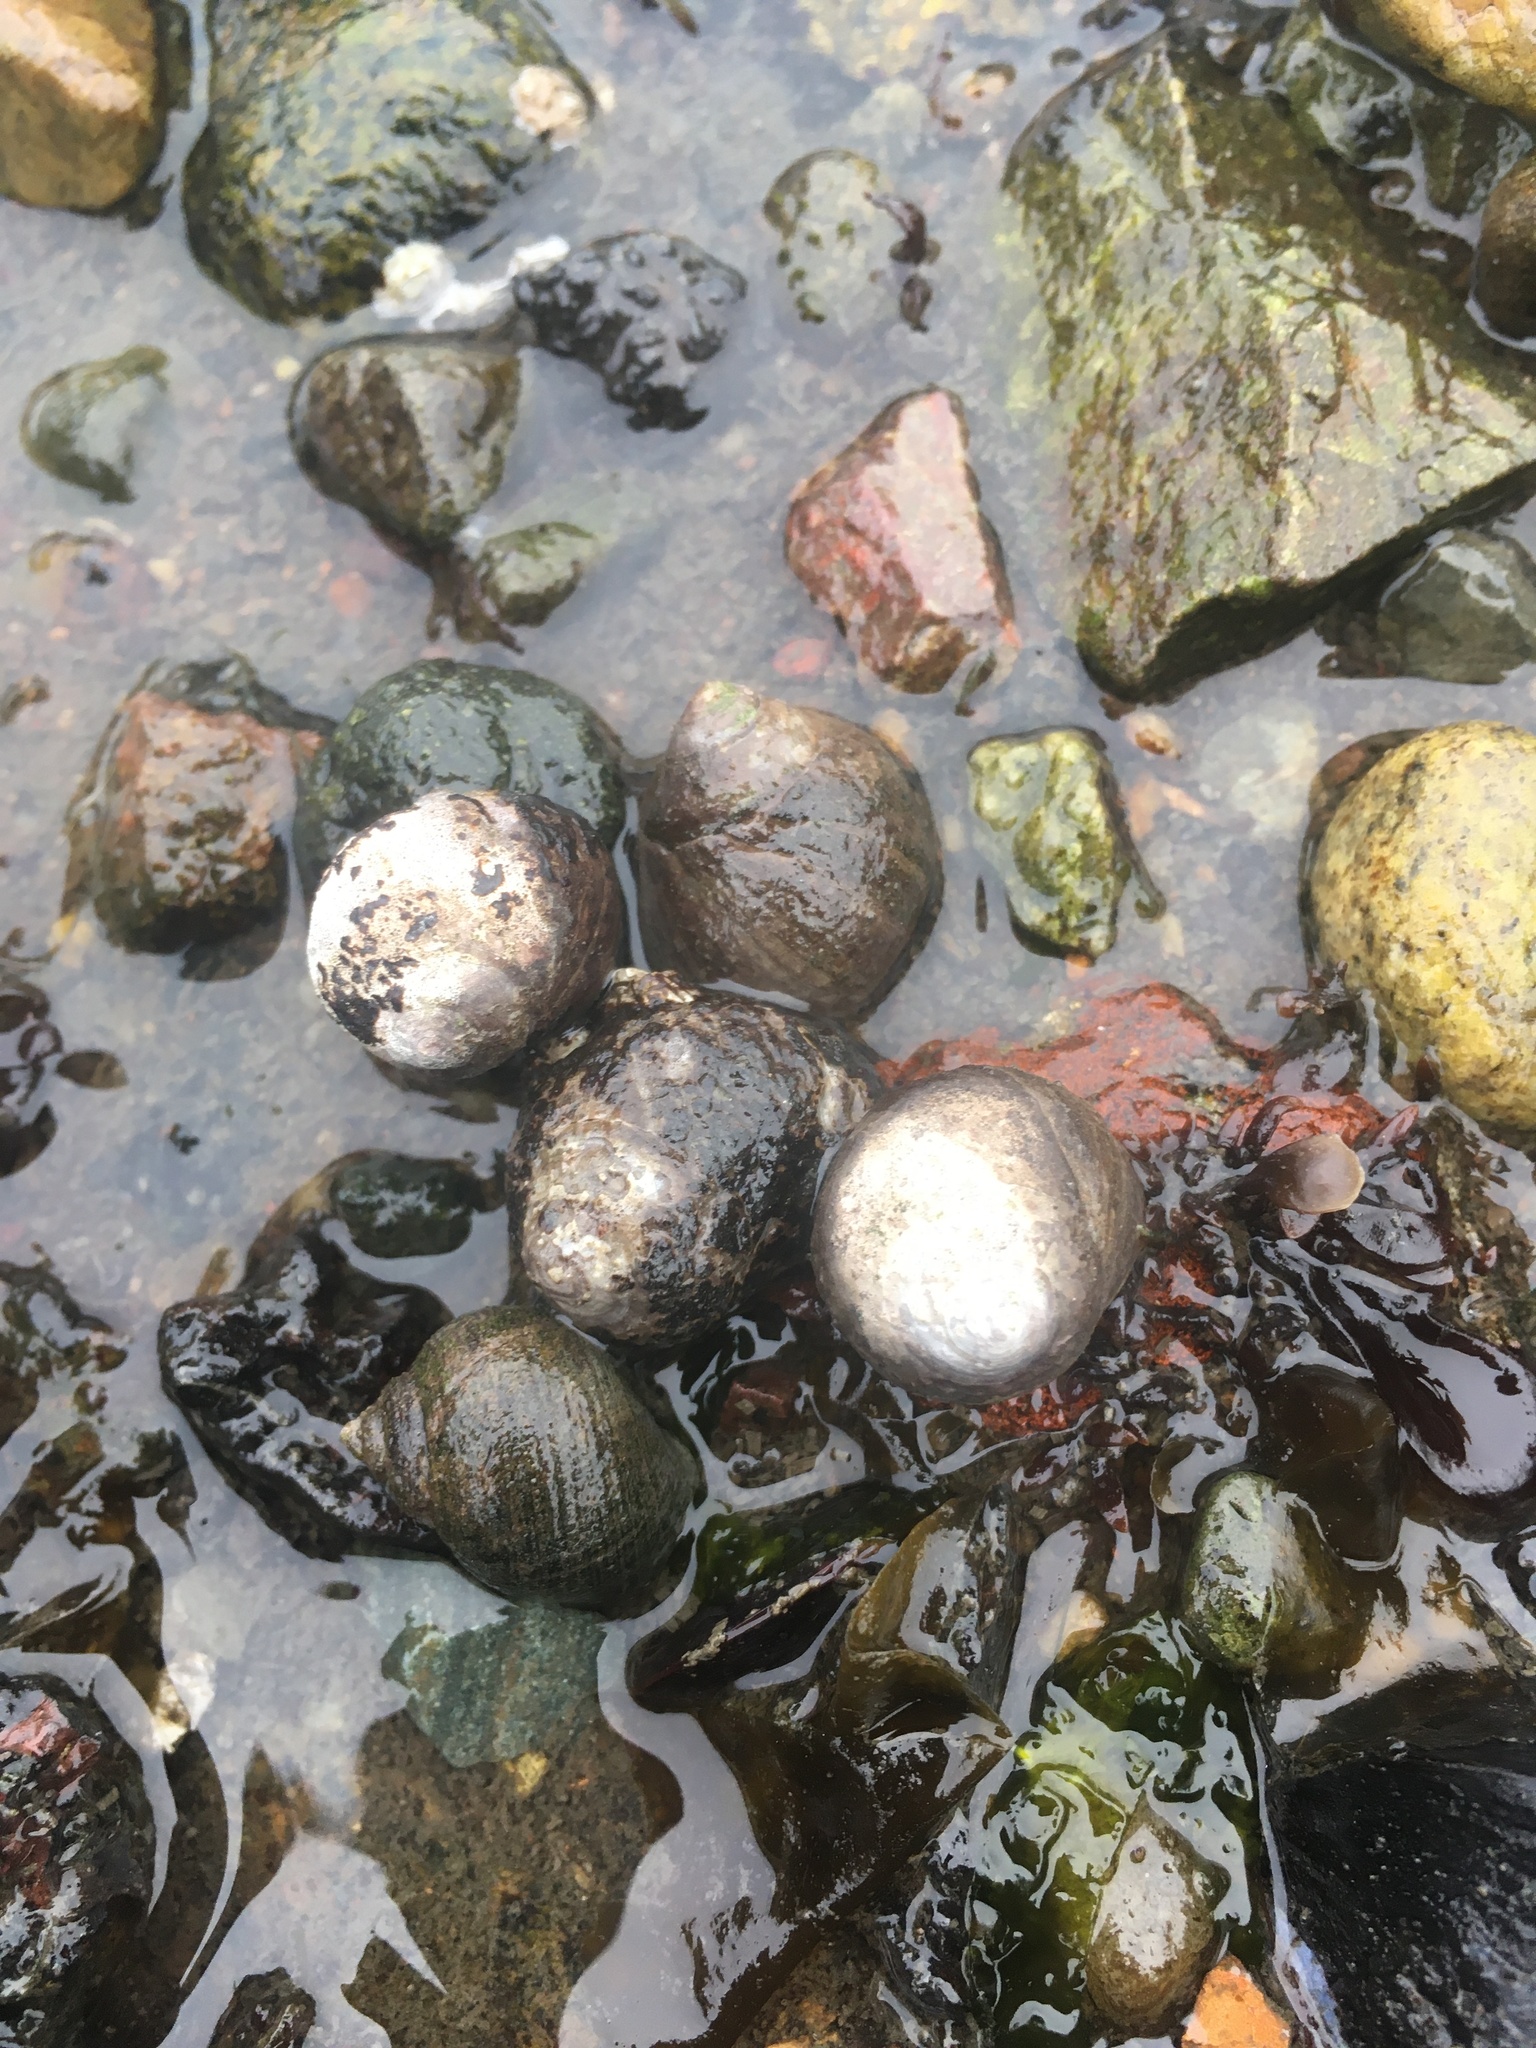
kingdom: Animalia
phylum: Mollusca
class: Gastropoda
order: Littorinimorpha
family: Littorinidae
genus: Littorina
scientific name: Littorina littorea
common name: Common periwinkle
